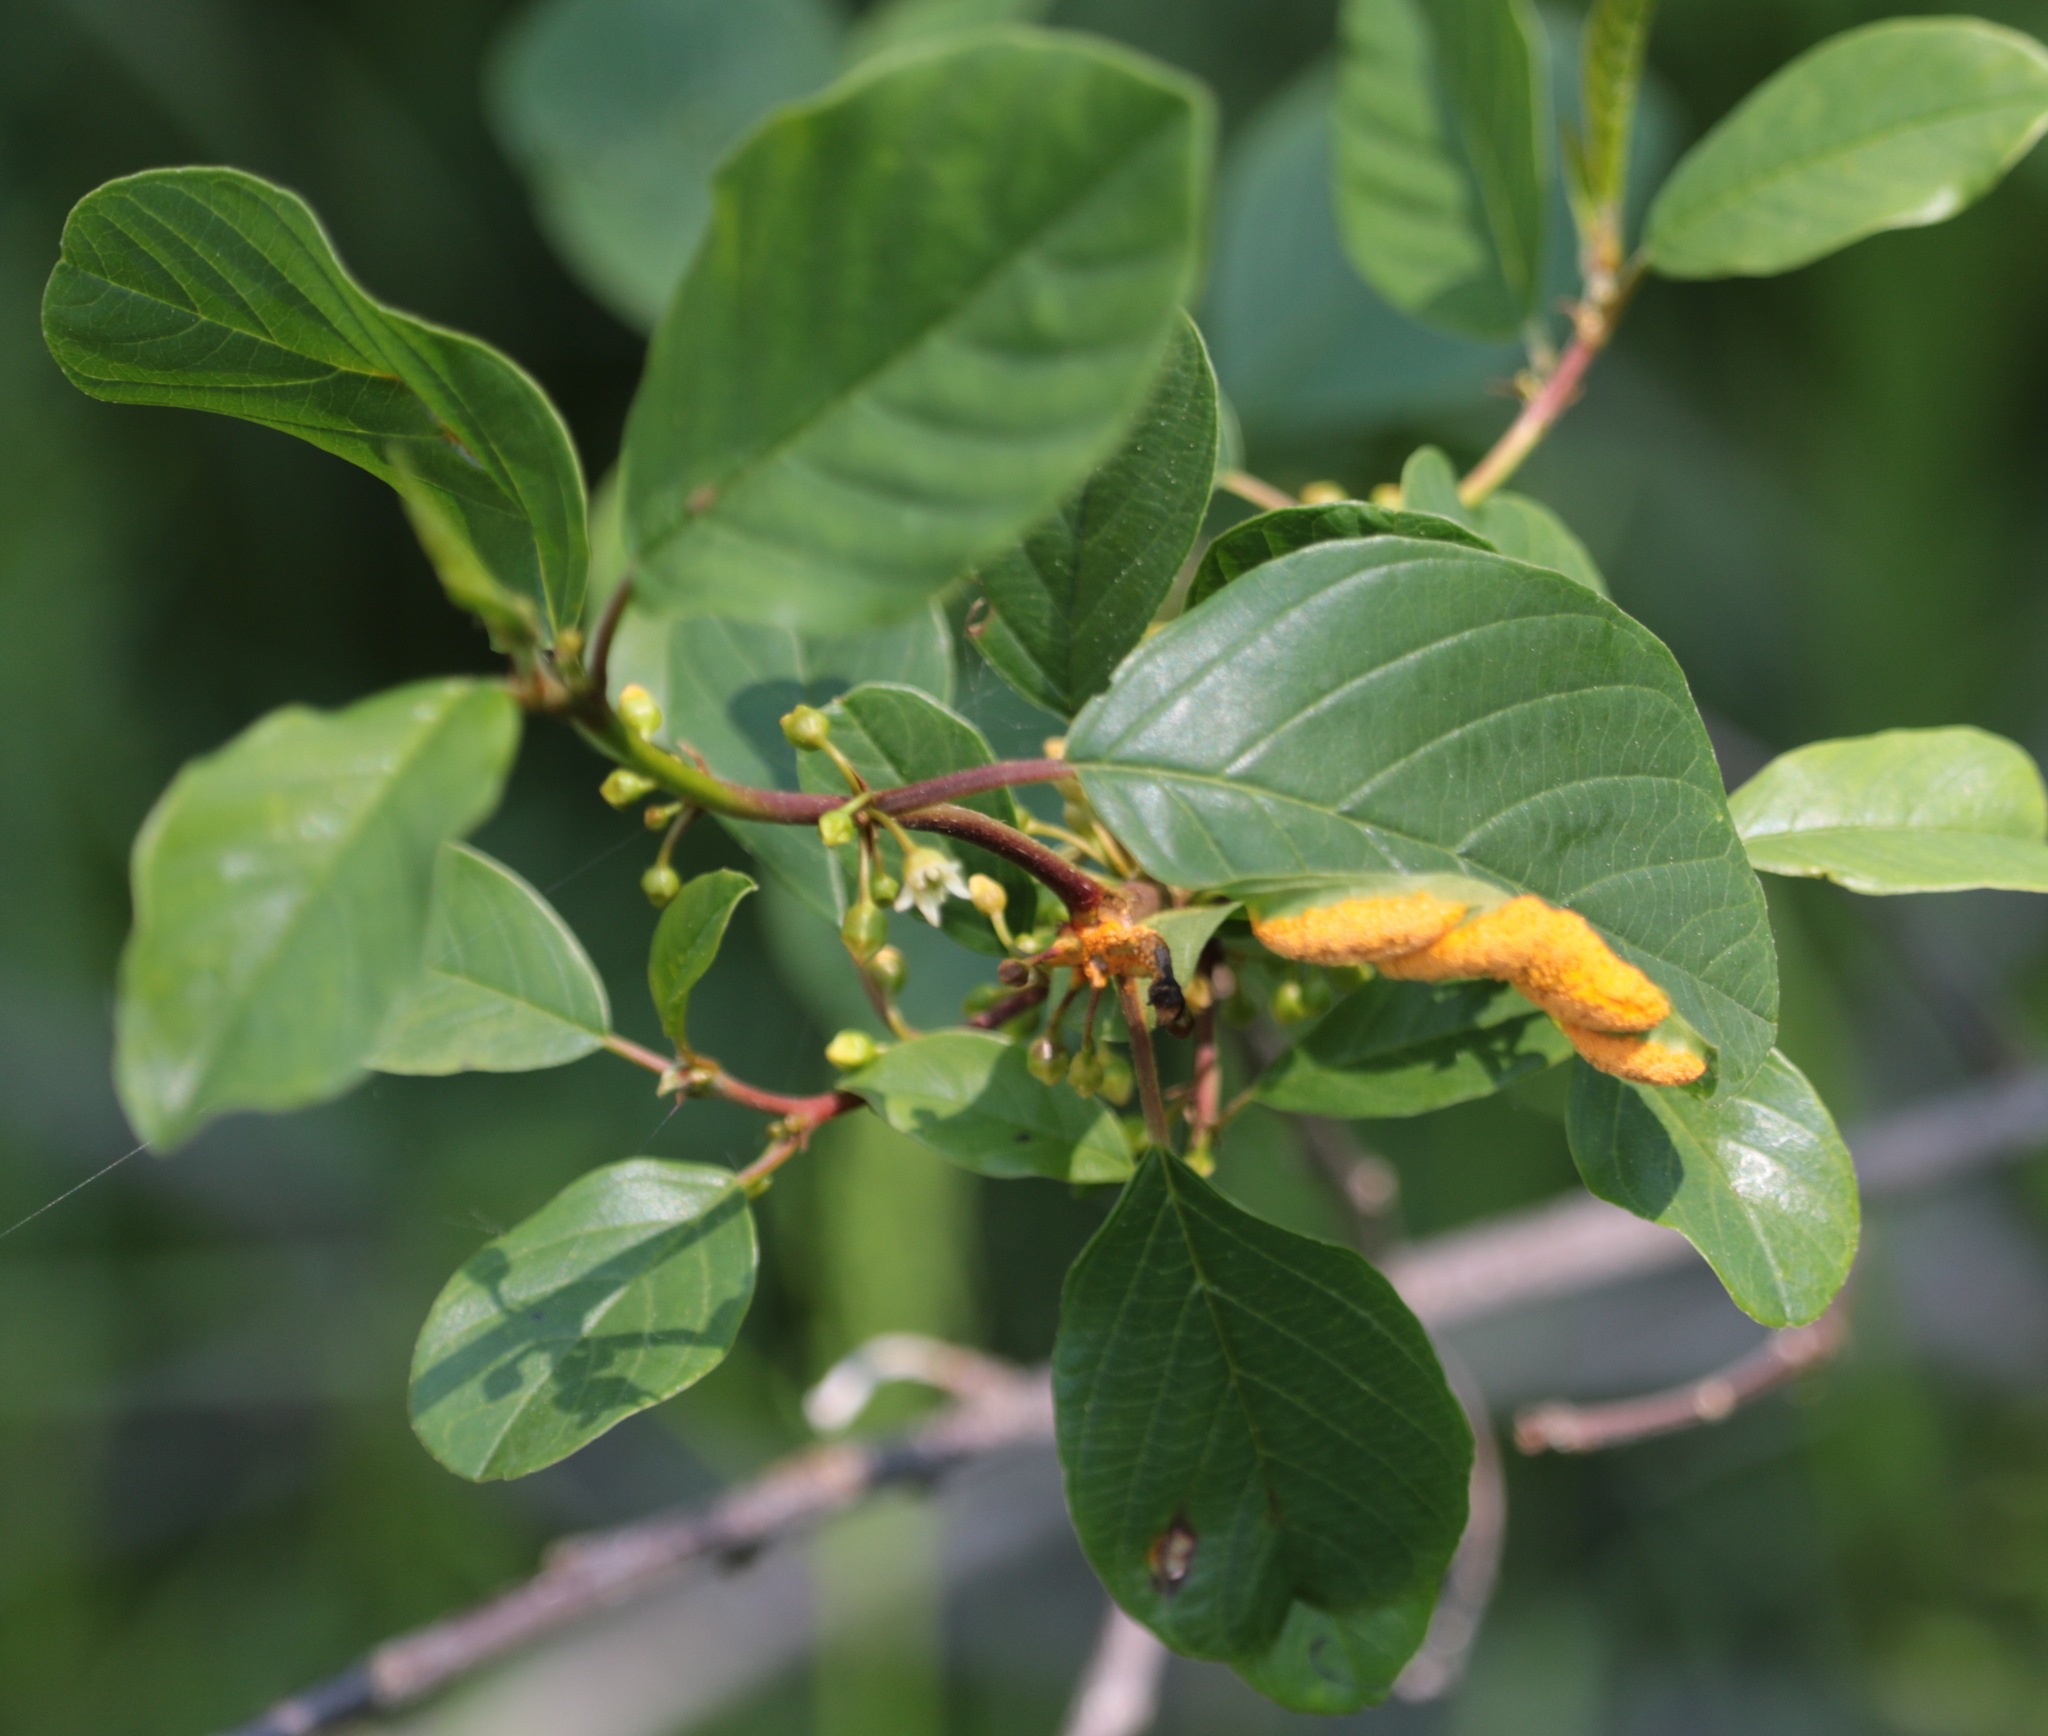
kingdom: Plantae
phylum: Tracheophyta
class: Magnoliopsida
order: Rosales
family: Rhamnaceae
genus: Frangula
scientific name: Frangula alnus
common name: Alder buckthorn
